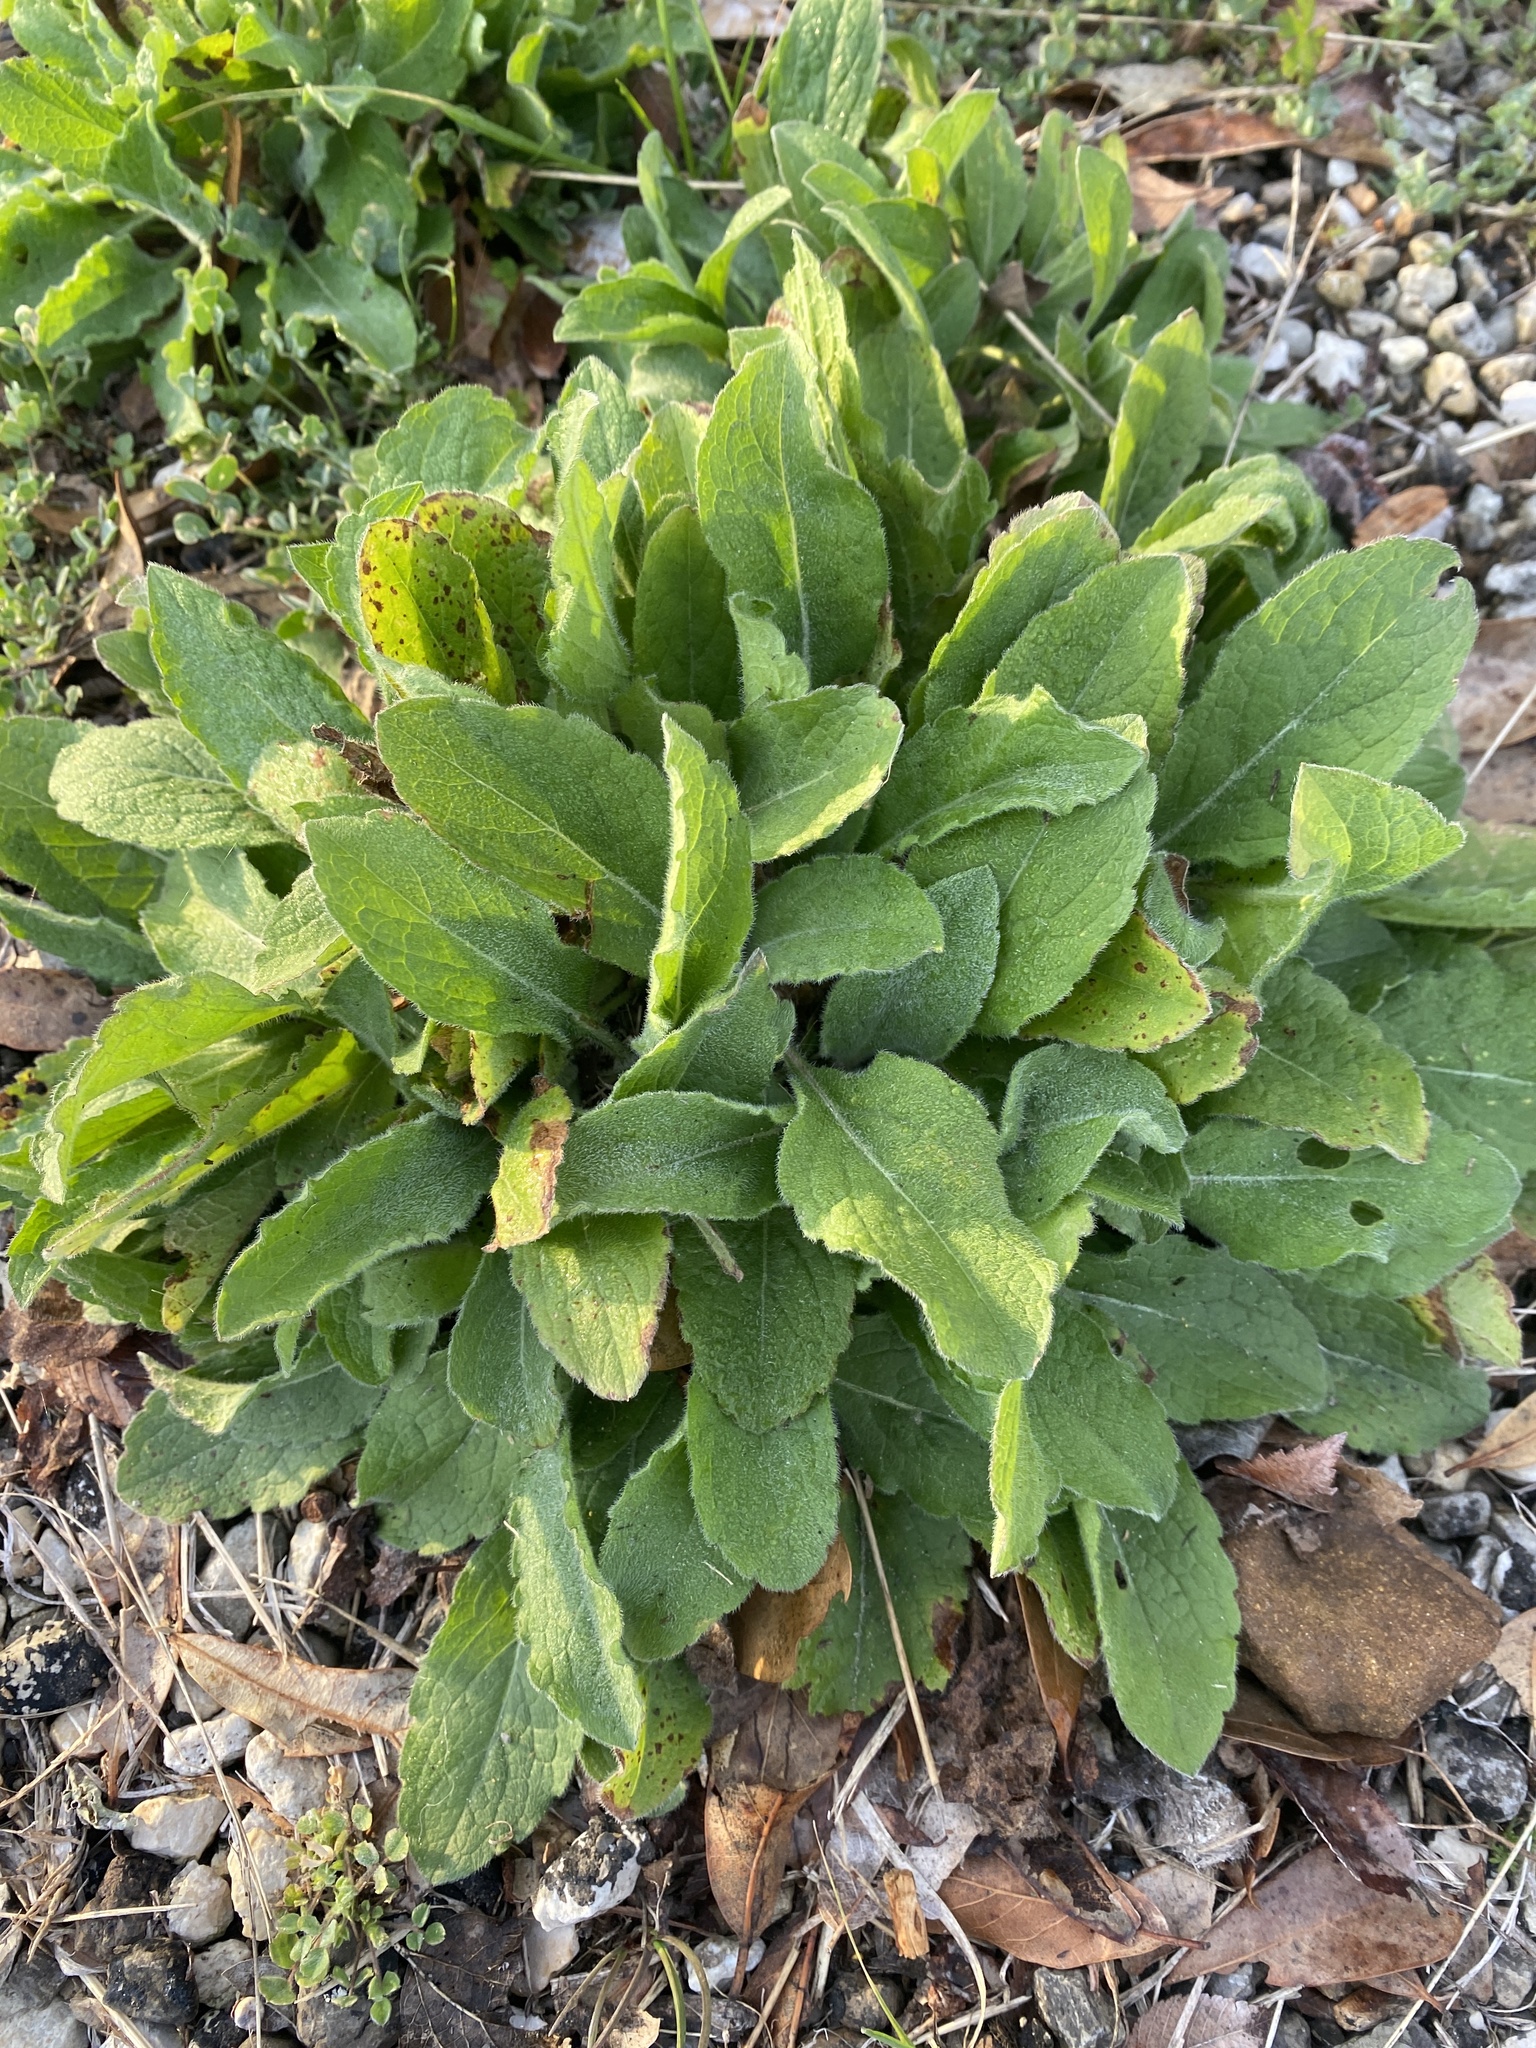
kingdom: Plantae
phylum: Tracheophyta
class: Magnoliopsida
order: Asterales
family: Asteraceae
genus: Heterotheca
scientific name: Heterotheca subaxillaris
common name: Camphorweed
